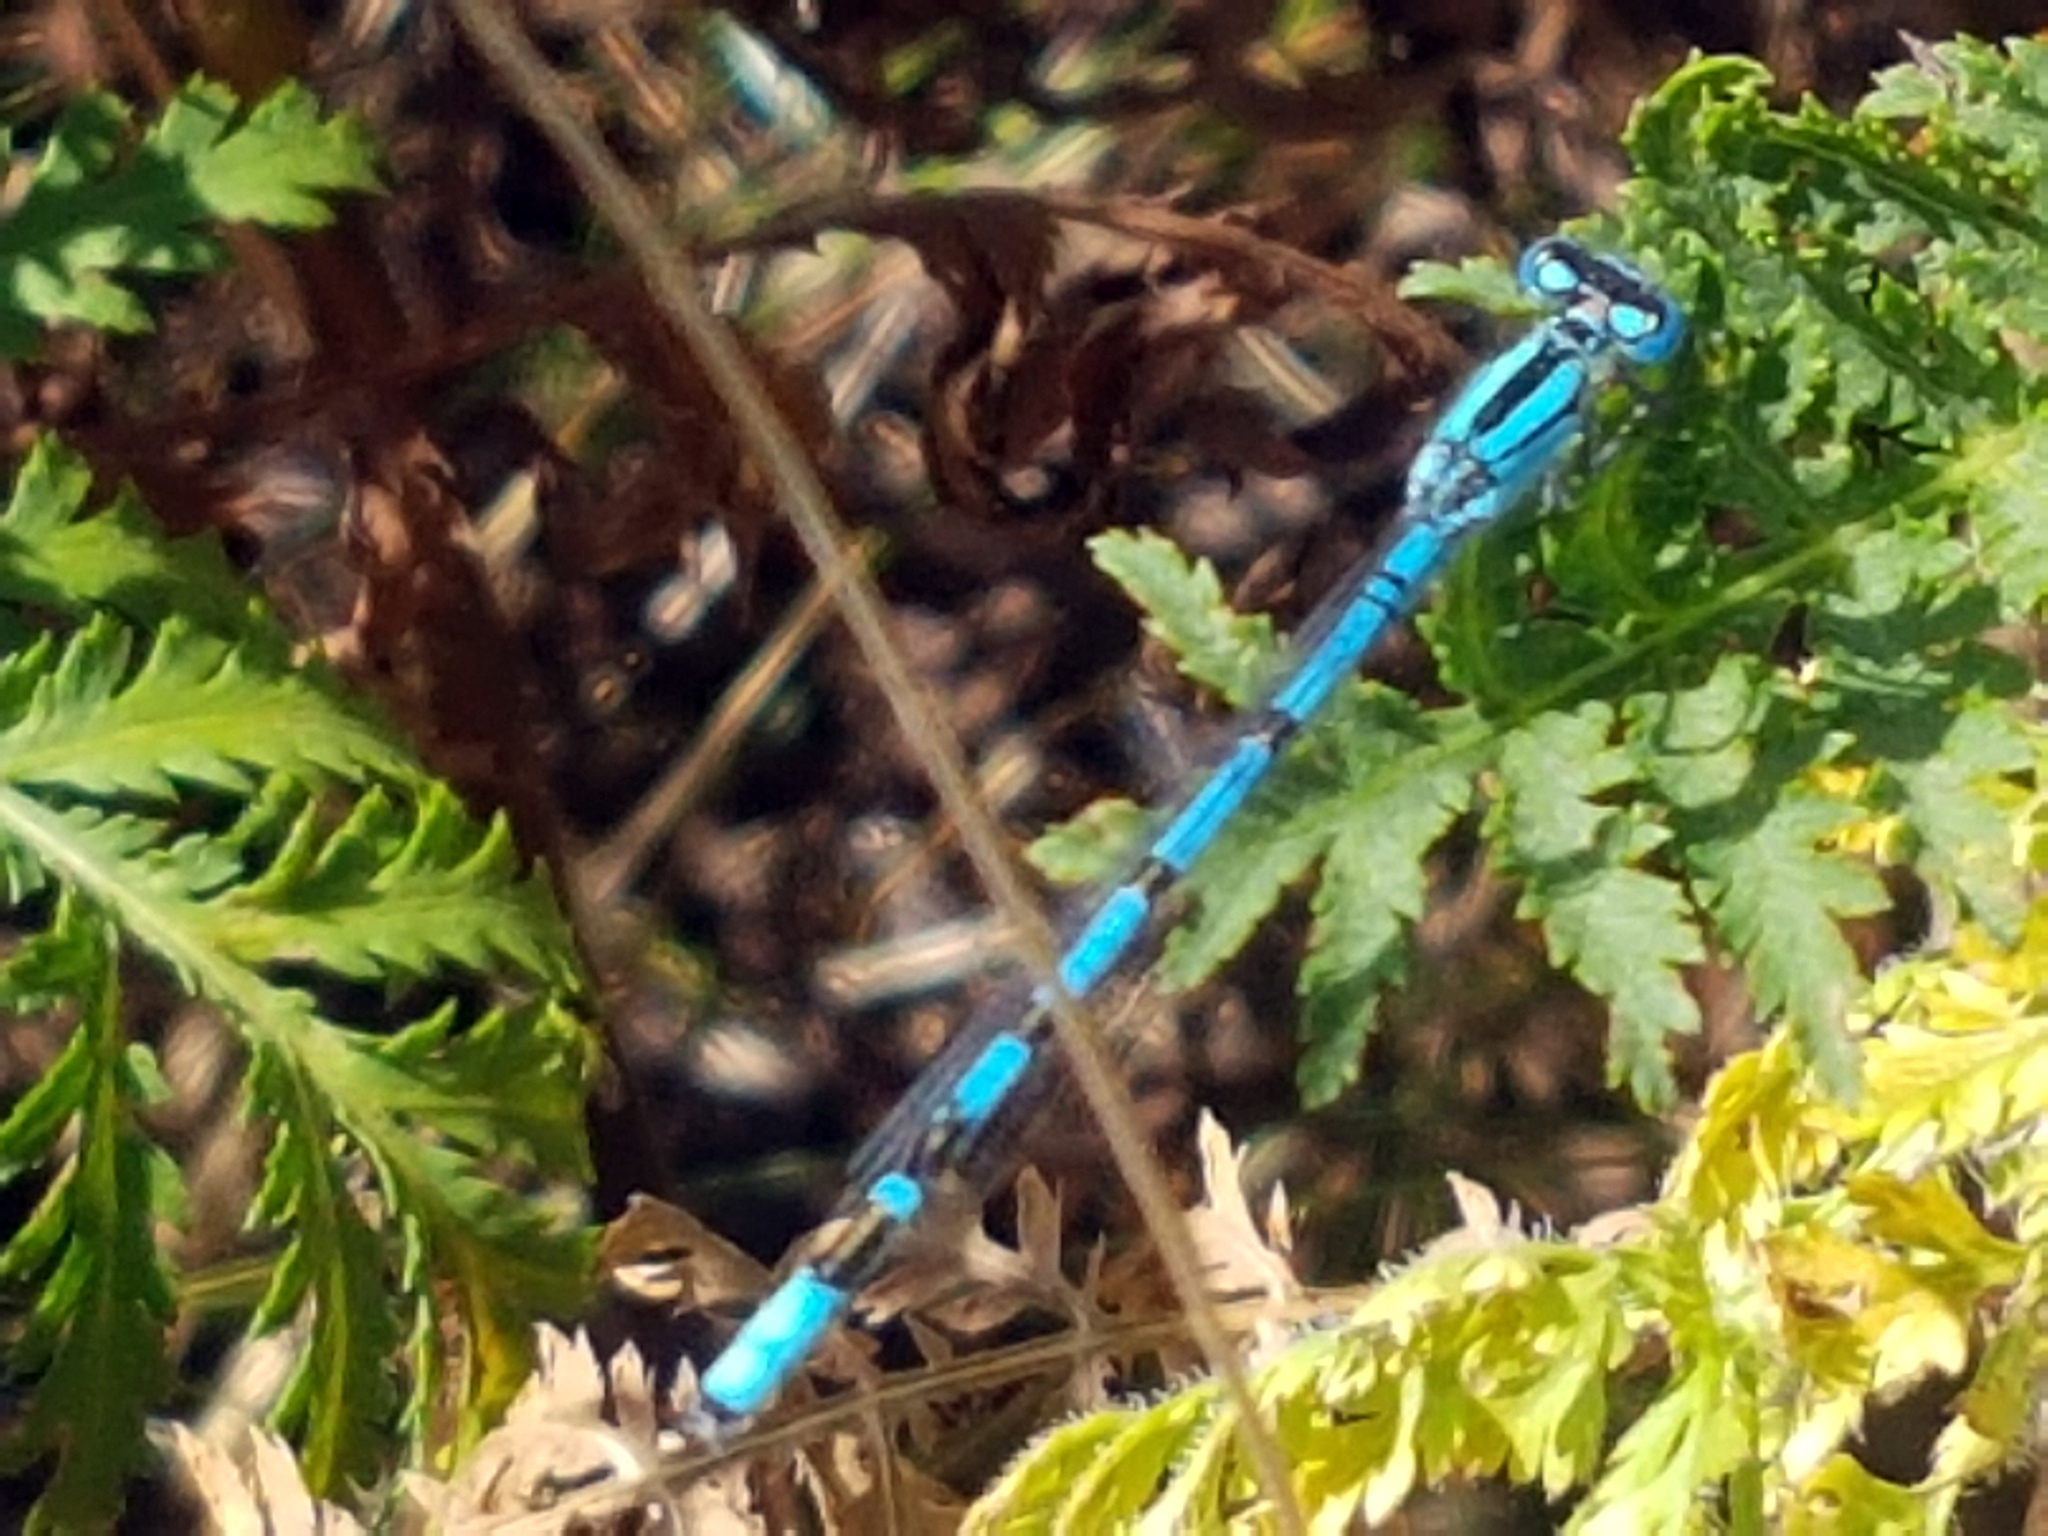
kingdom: Animalia
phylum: Arthropoda
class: Insecta
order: Odonata
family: Coenagrionidae
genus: Enallagma
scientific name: Enallagma cyathigerum
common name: Common blue damselfly
